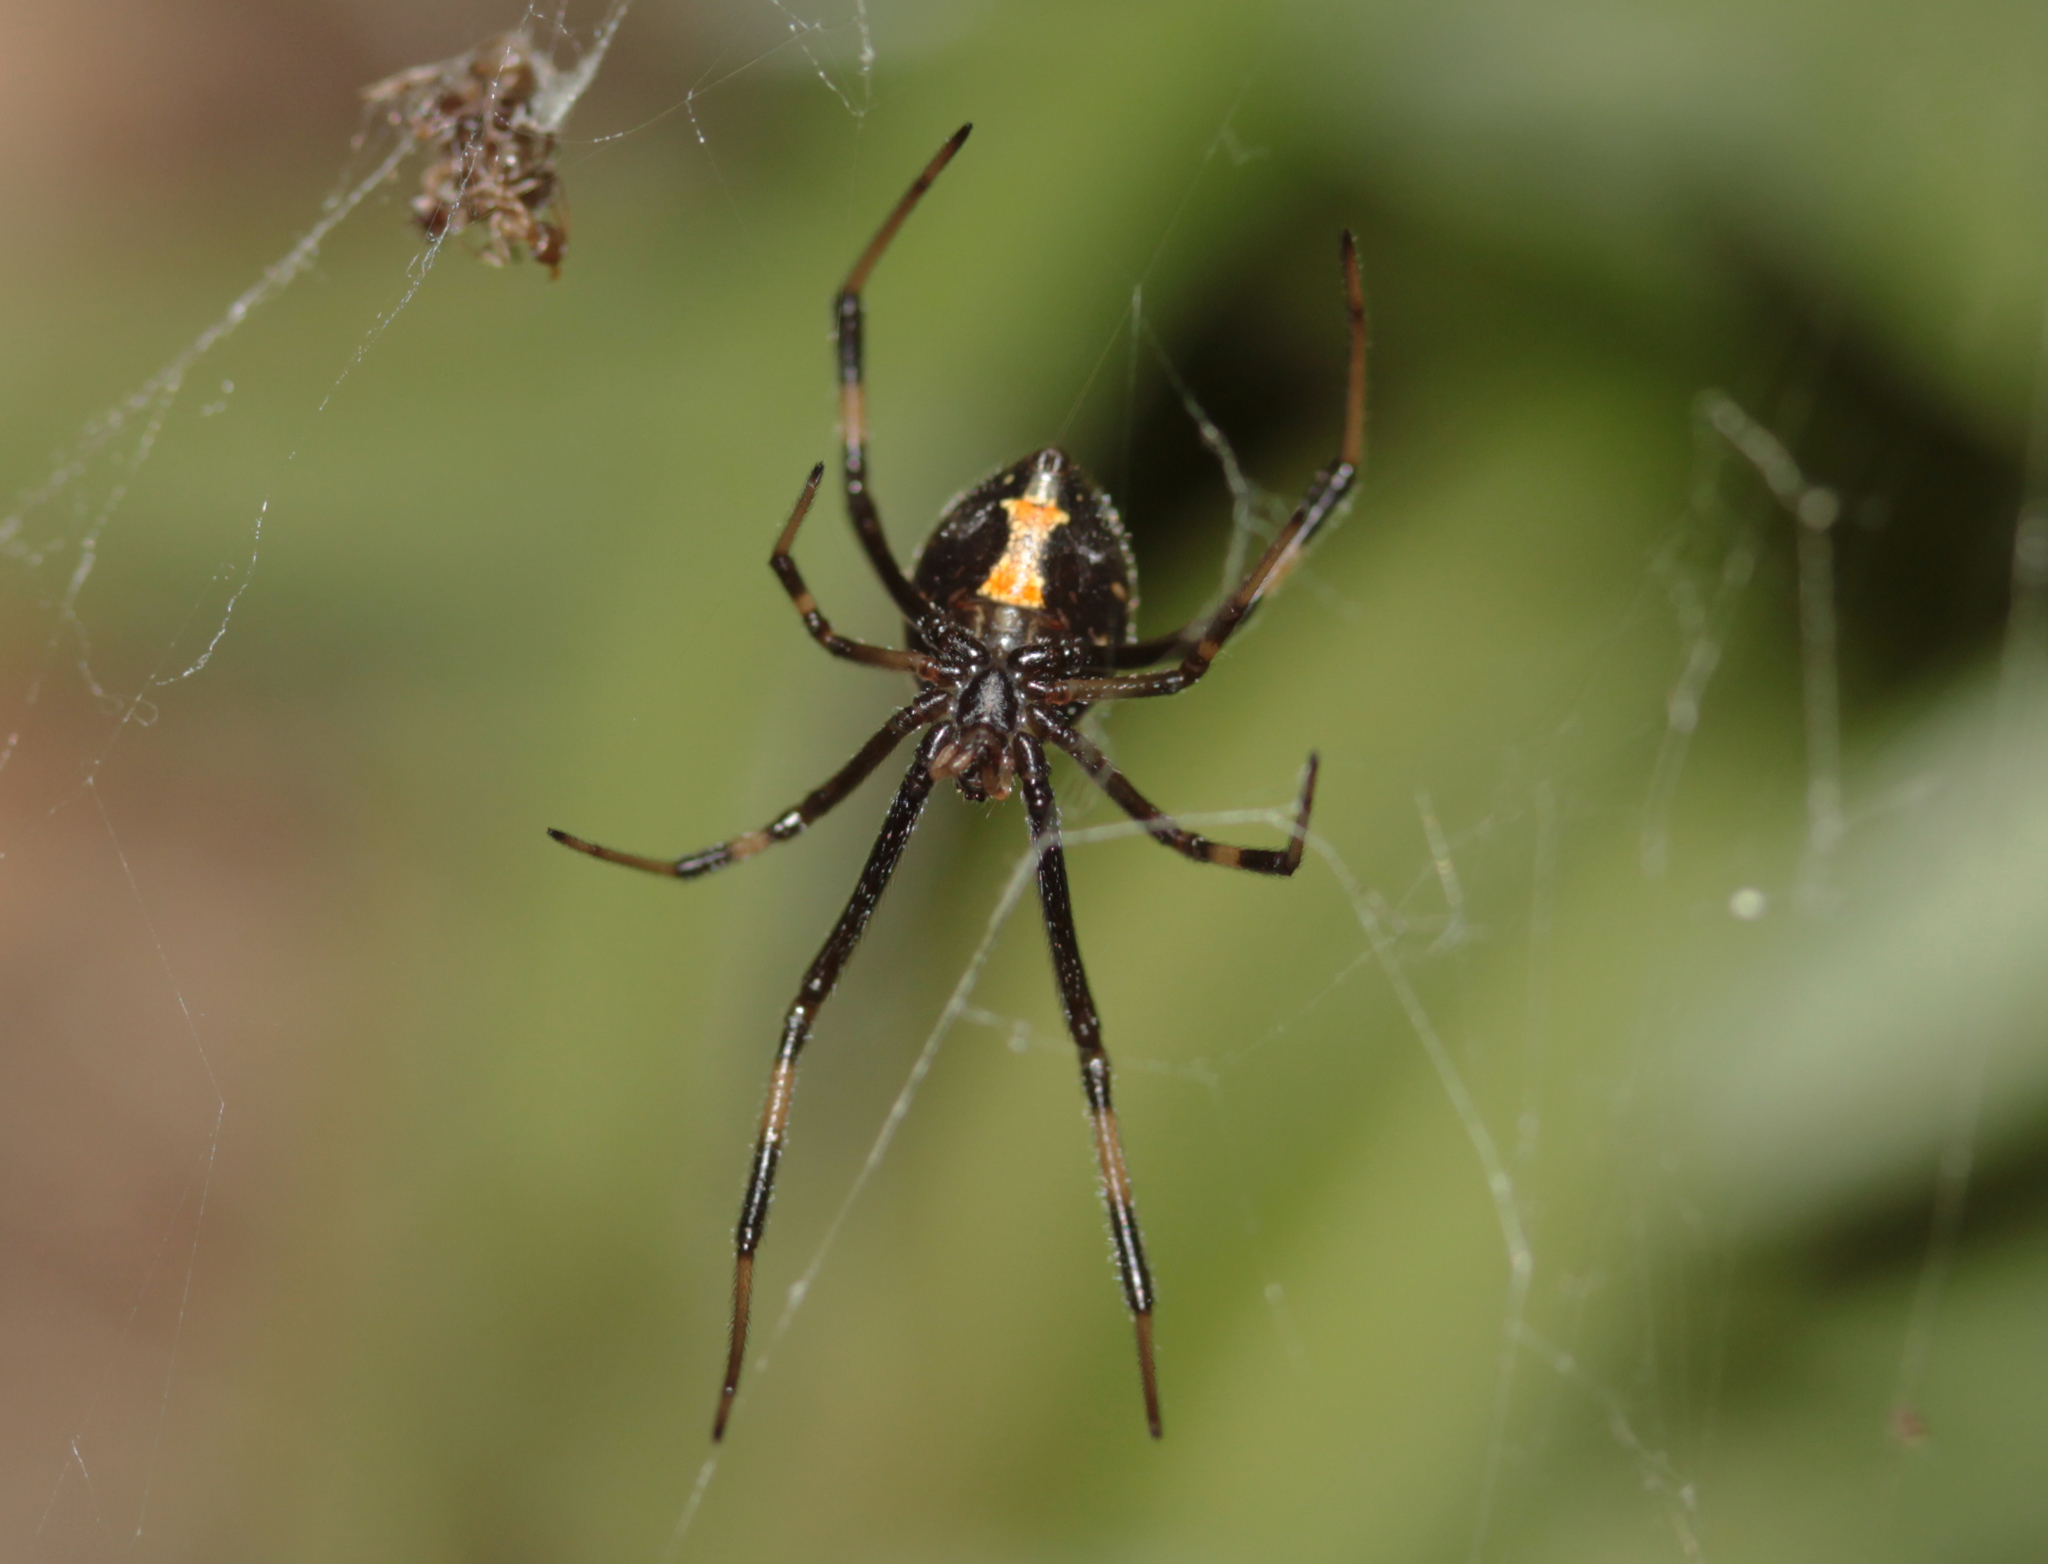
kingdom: Animalia
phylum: Arthropoda
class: Arachnida
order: Araneae
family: Theridiidae
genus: Latrodectus
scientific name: Latrodectus hesperus
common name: Western black widow
